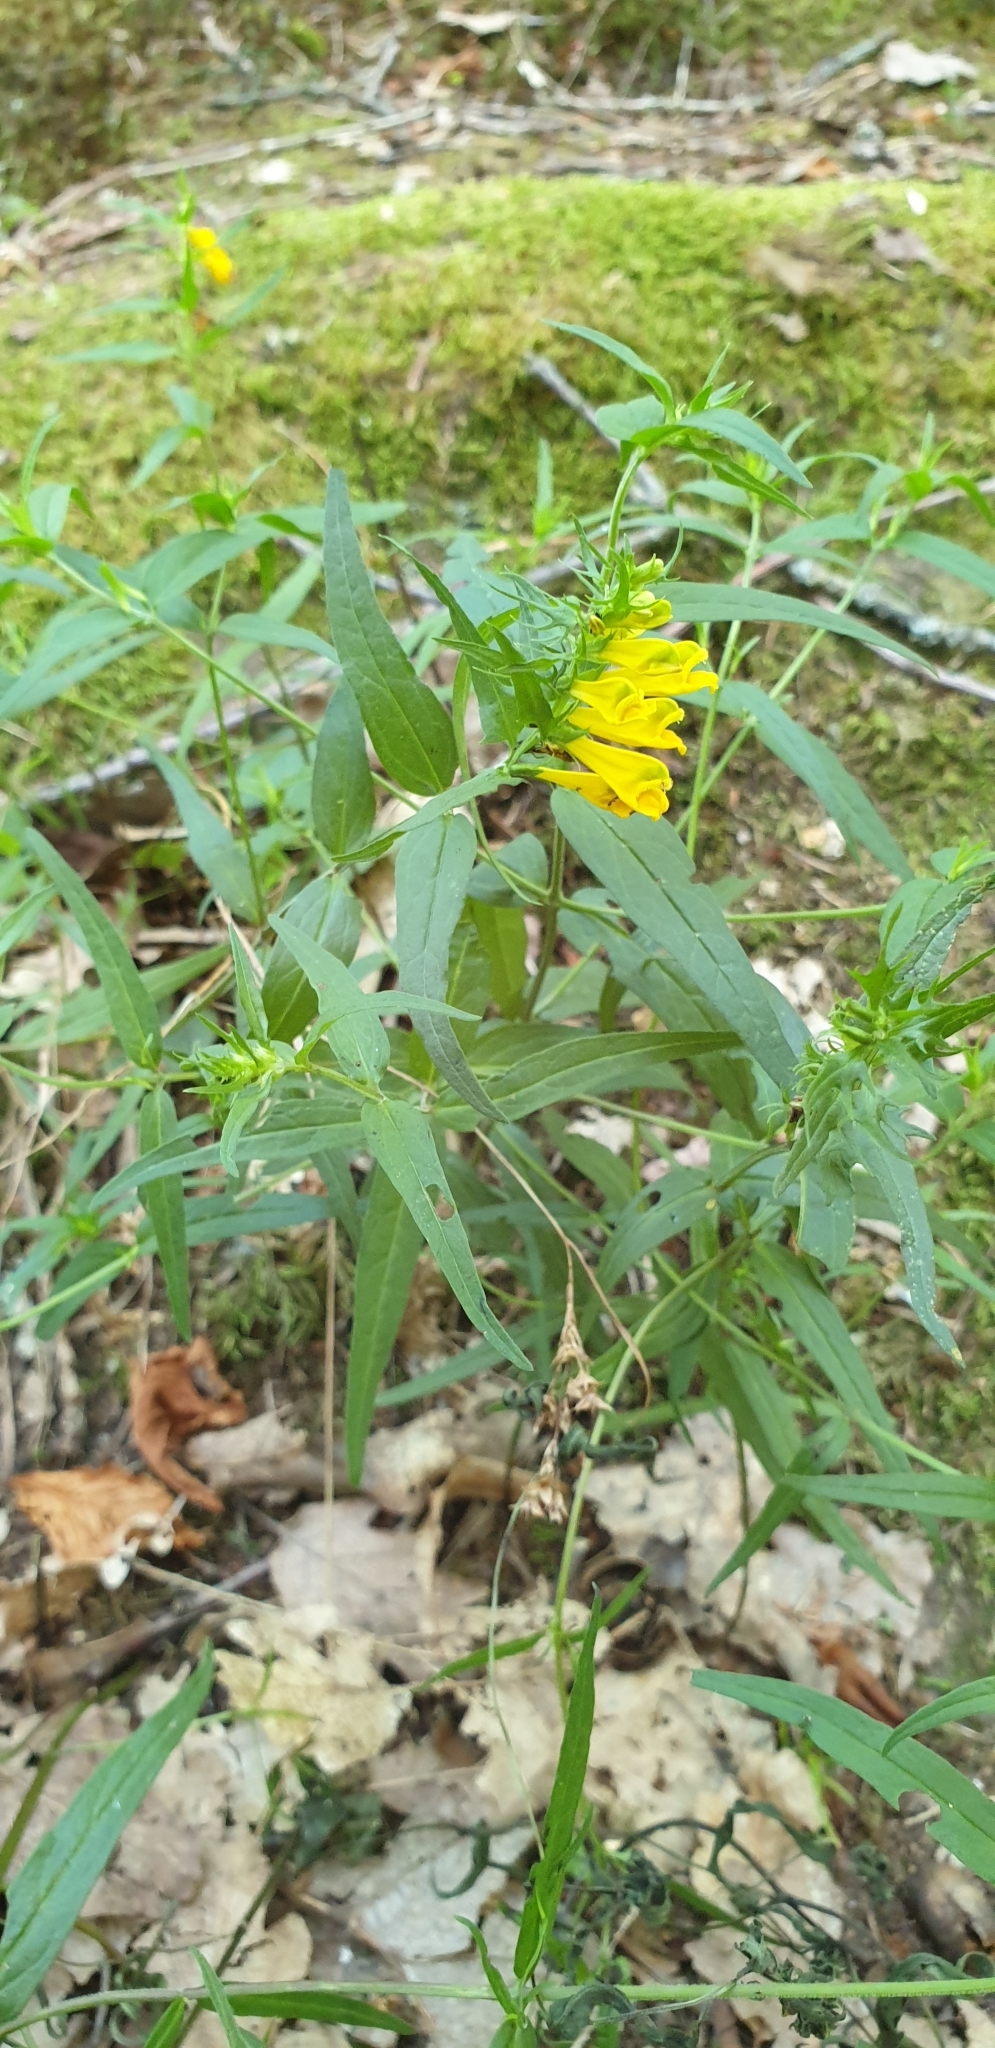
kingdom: Plantae
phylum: Tracheophyta
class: Magnoliopsida
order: Lamiales
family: Orobanchaceae
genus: Melampyrum
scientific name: Melampyrum pratense
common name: Common cow-wheat
